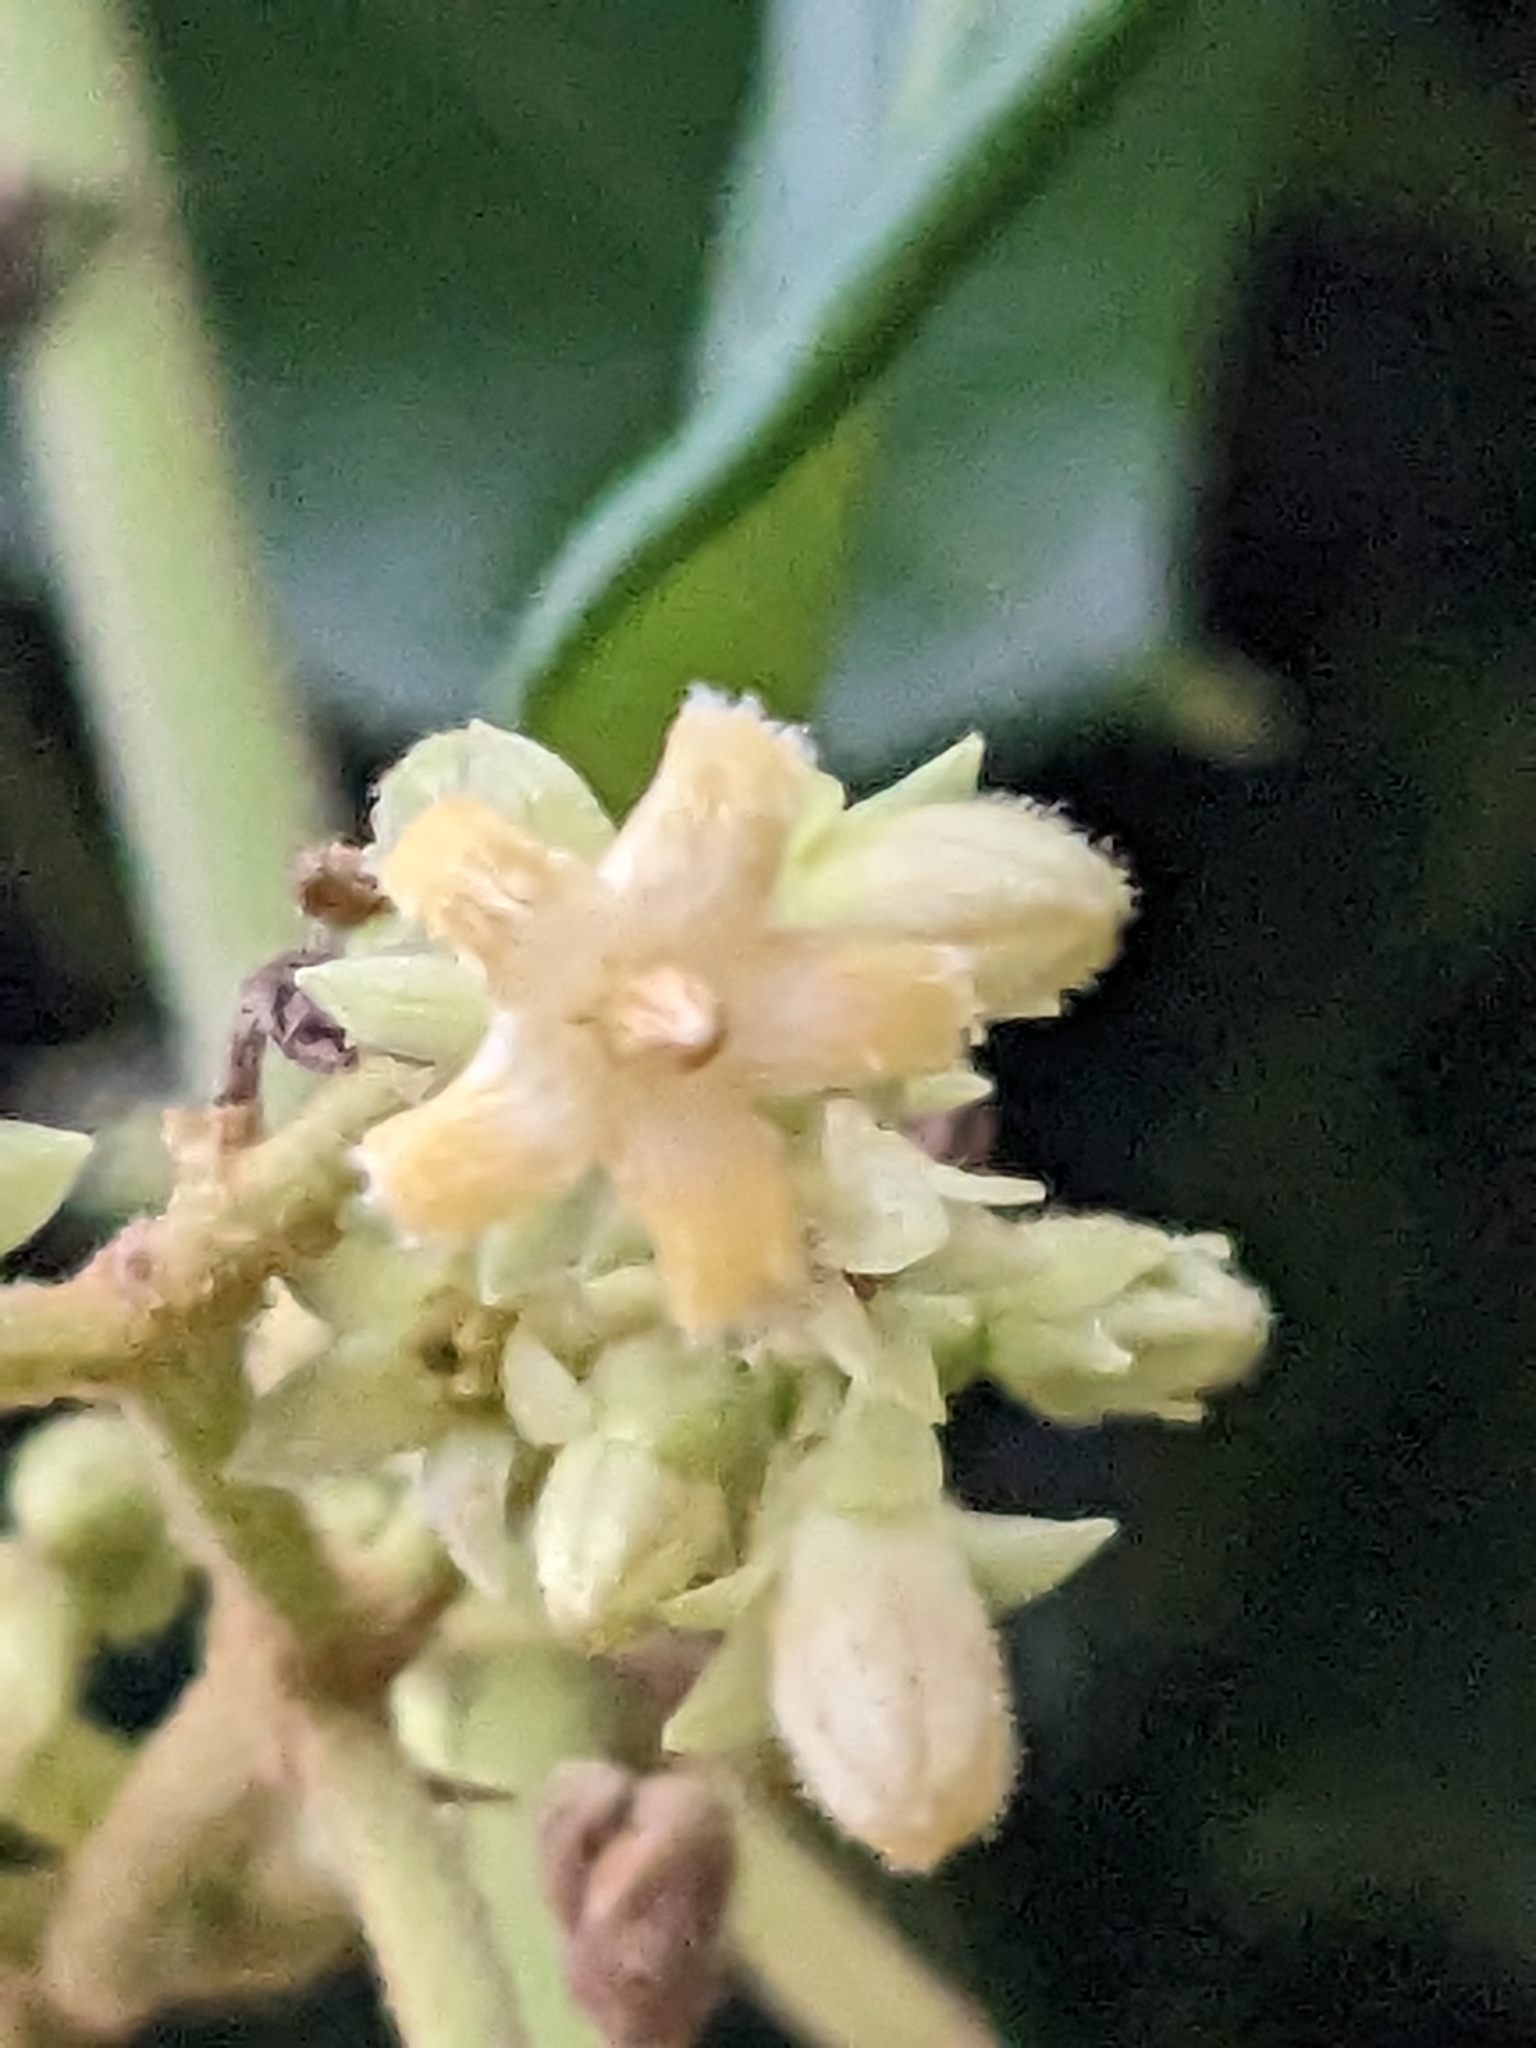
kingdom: Plantae
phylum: Tracheophyta
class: Magnoliopsida
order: Gentianales
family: Apocynaceae
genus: Parsonsia
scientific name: Parsonsia straminea
